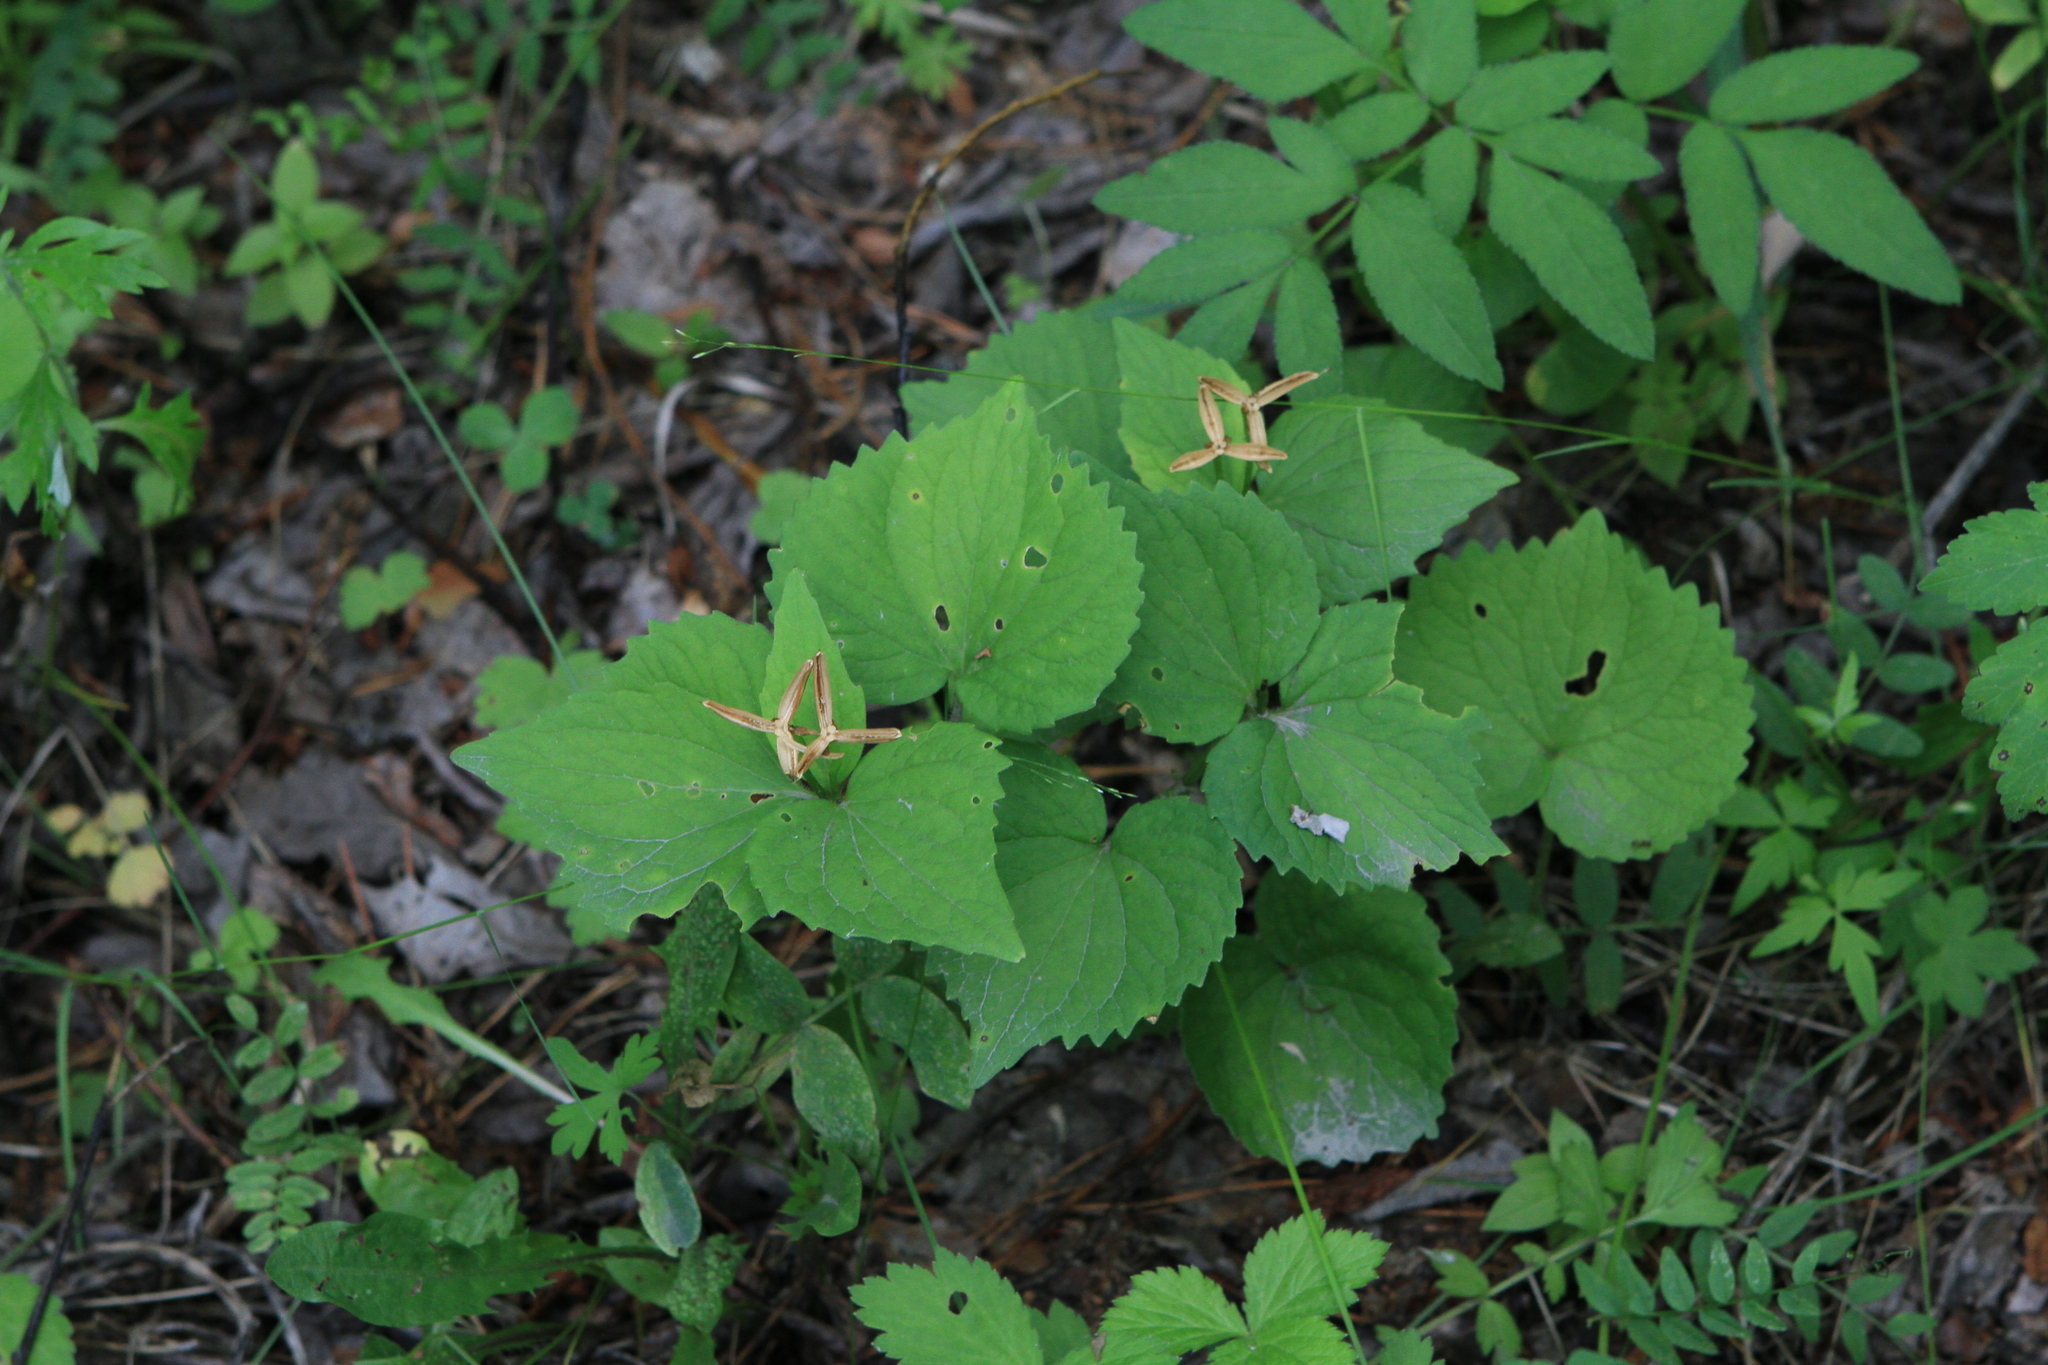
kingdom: Plantae
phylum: Tracheophyta
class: Magnoliopsida
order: Malpighiales
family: Violaceae
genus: Viola
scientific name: Viola uniflora
